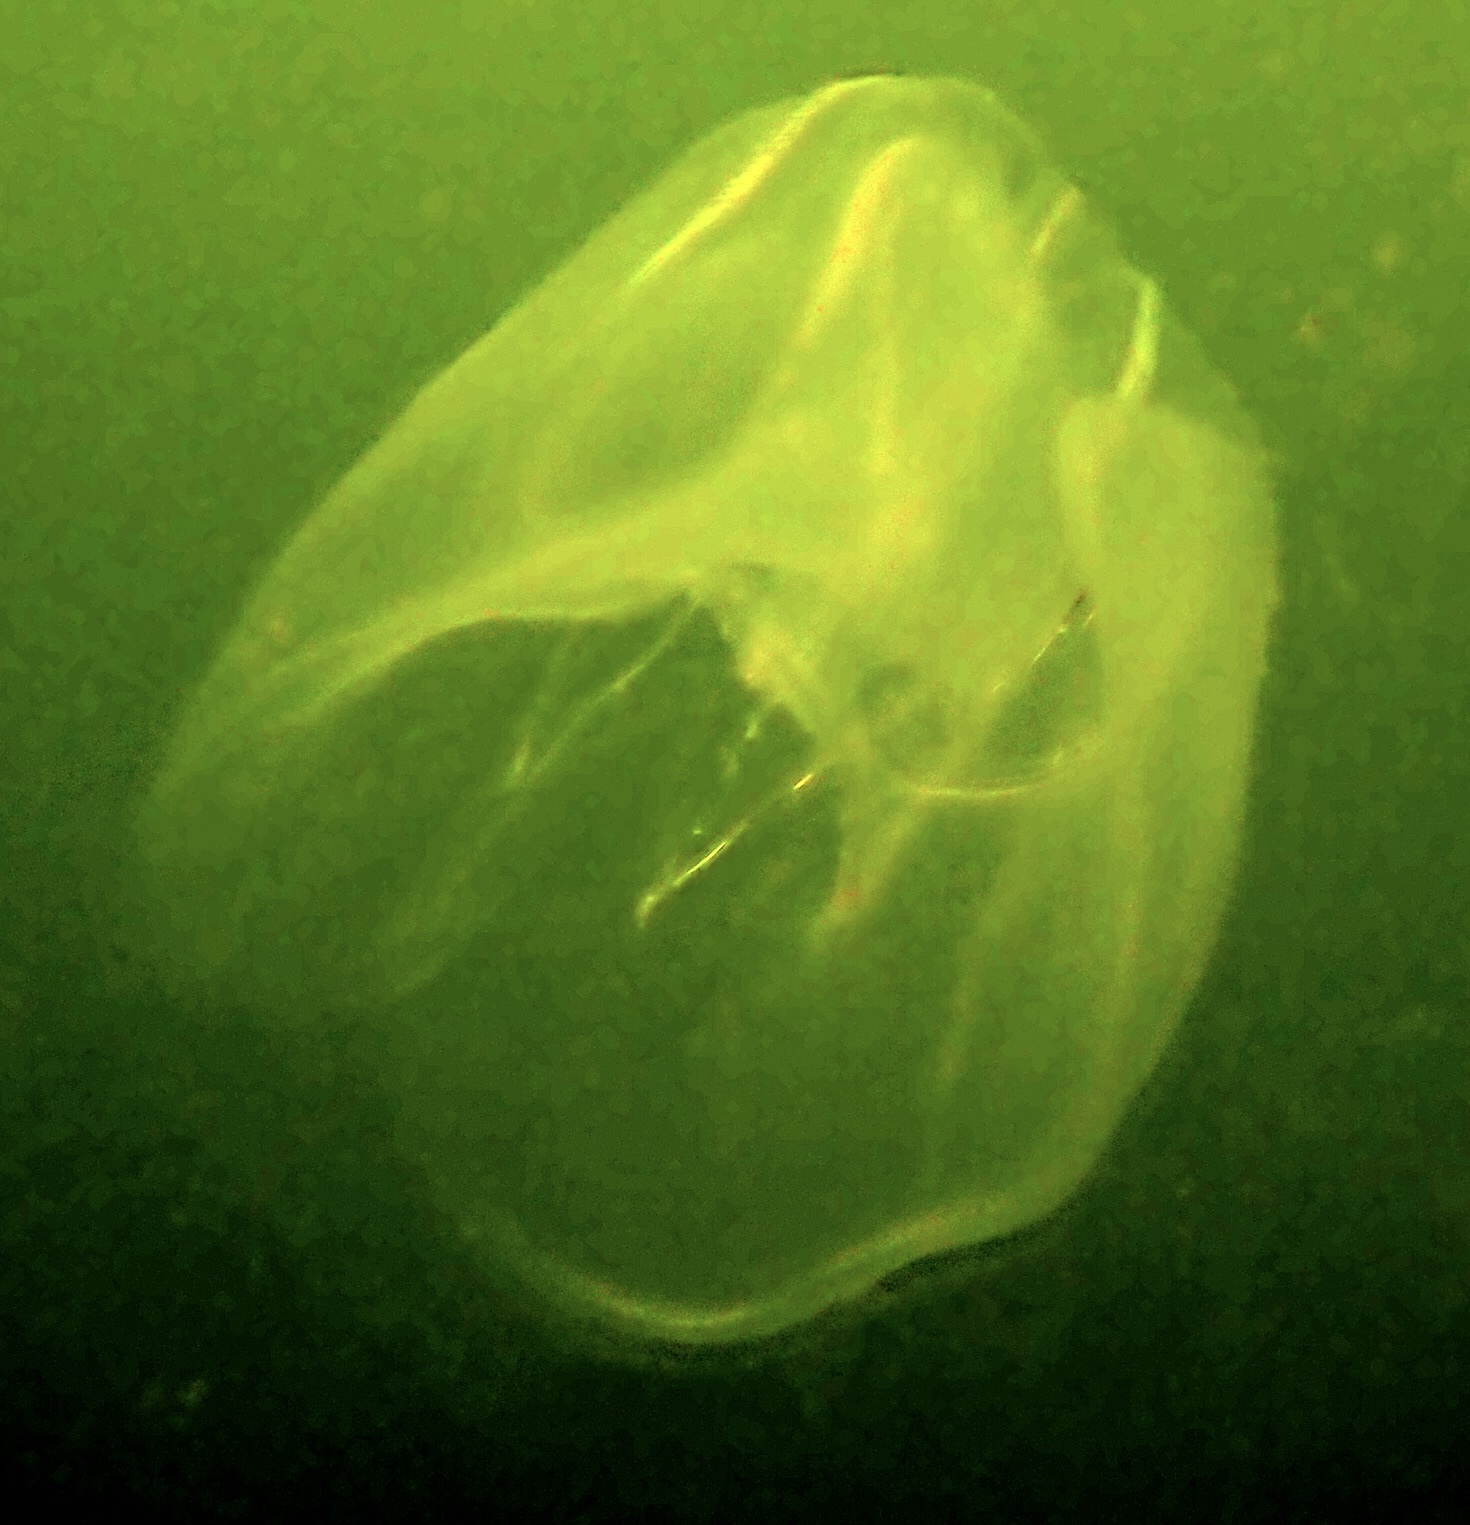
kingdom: Animalia
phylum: Ctenophora
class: Tentaculata
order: Lobata
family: Bolinopsidae
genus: Mnemiopsis
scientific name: Mnemiopsis leidyi
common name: American comb jelly
